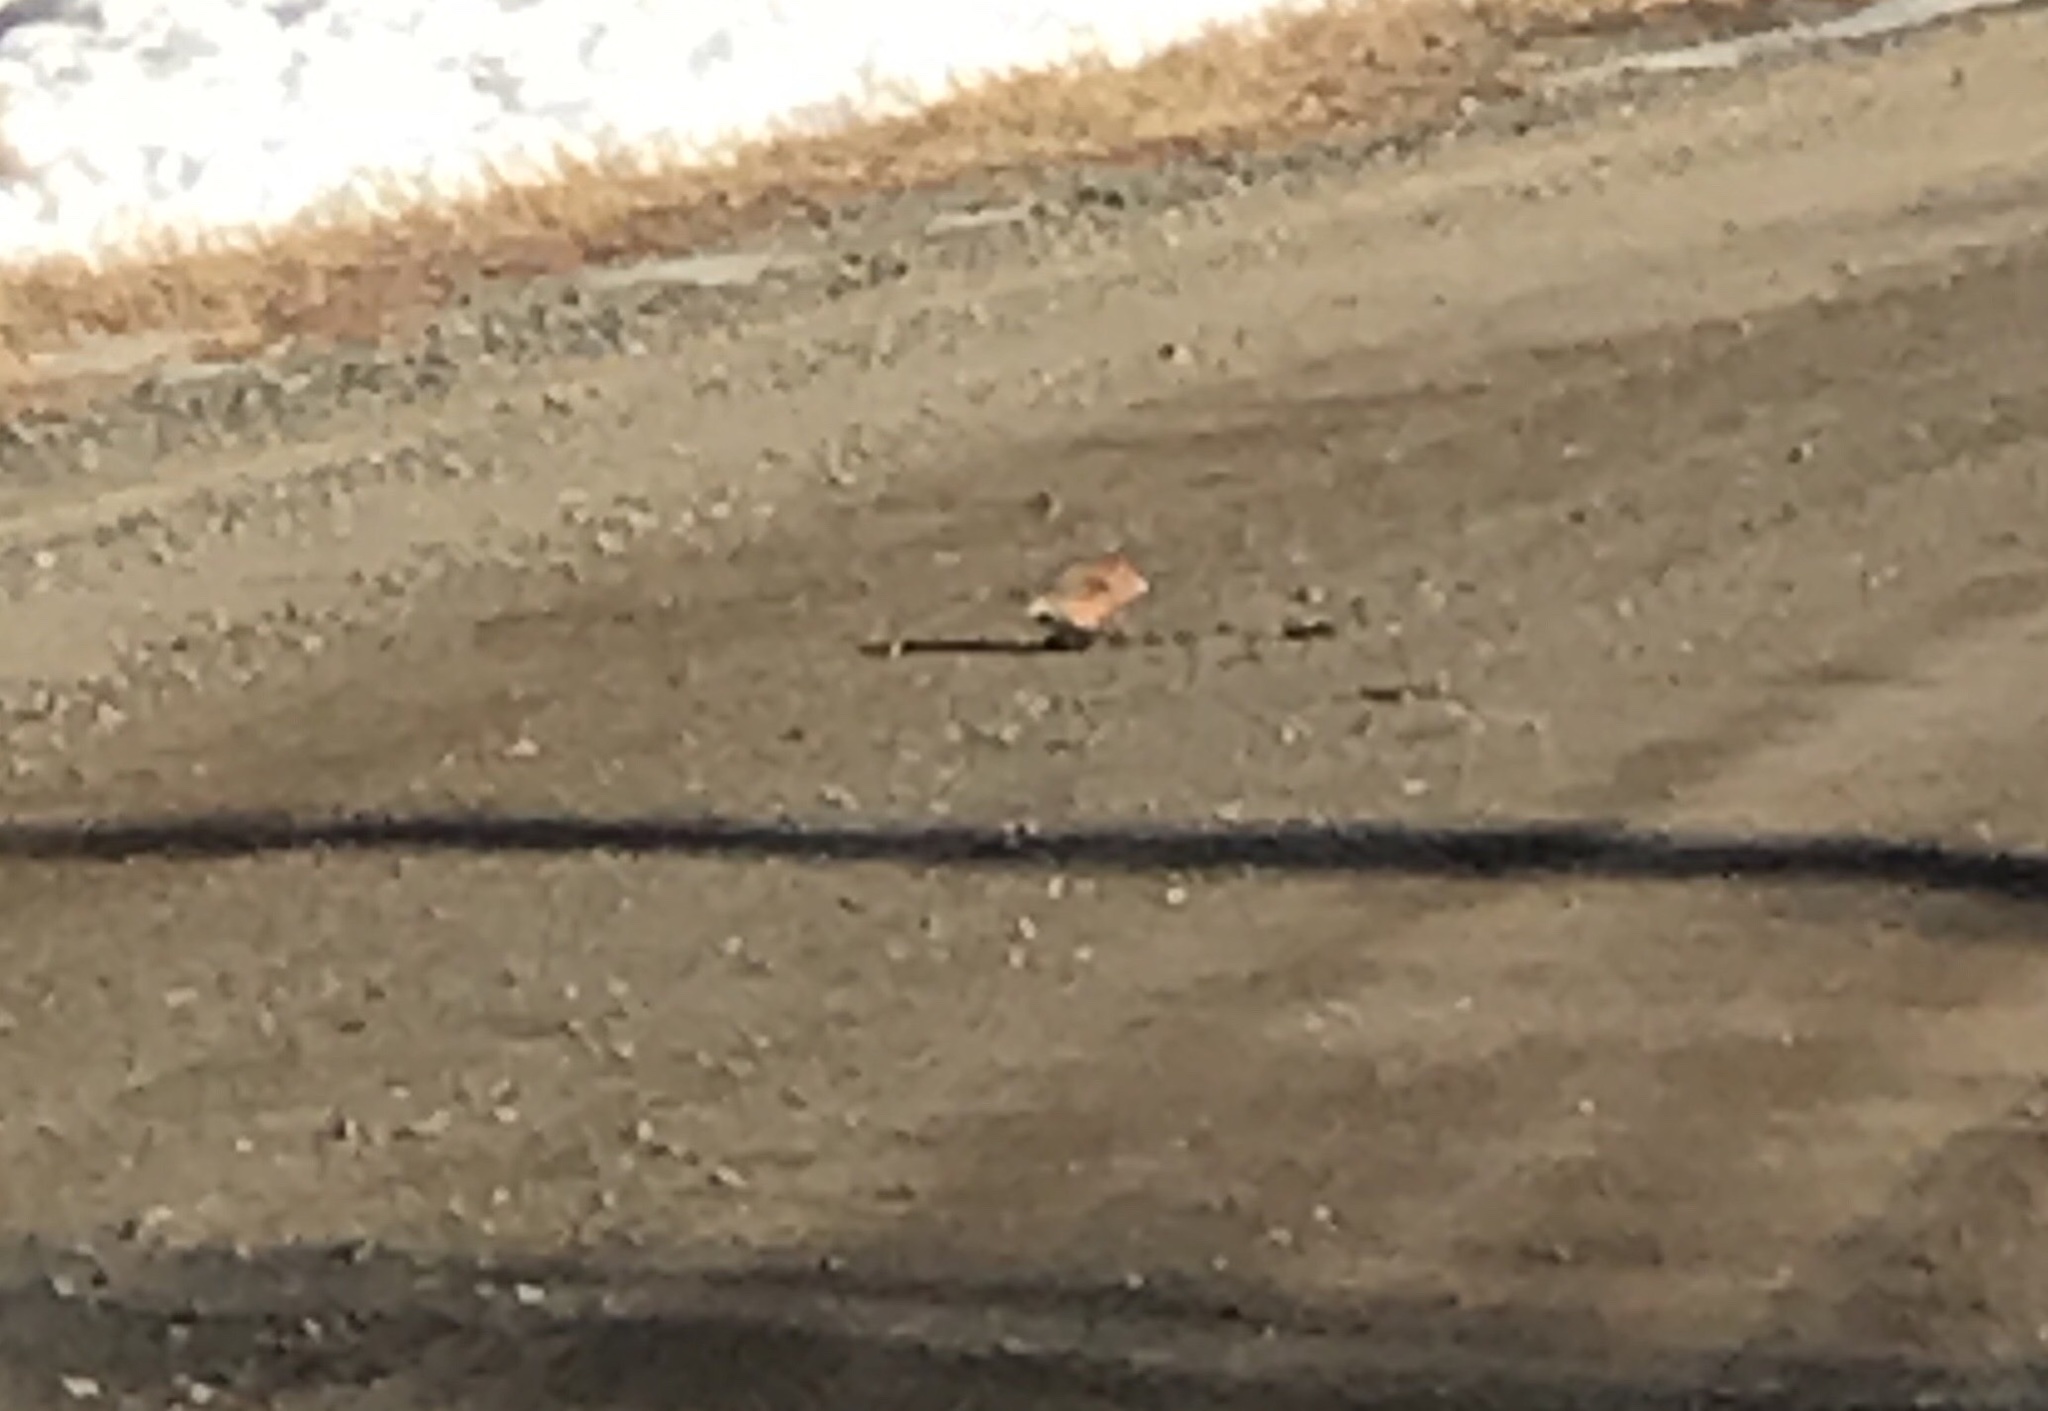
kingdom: Animalia
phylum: Chordata
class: Aves
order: Passeriformes
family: Fringillidae
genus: Loxia
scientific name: Loxia curvirostra
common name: Red crossbill
